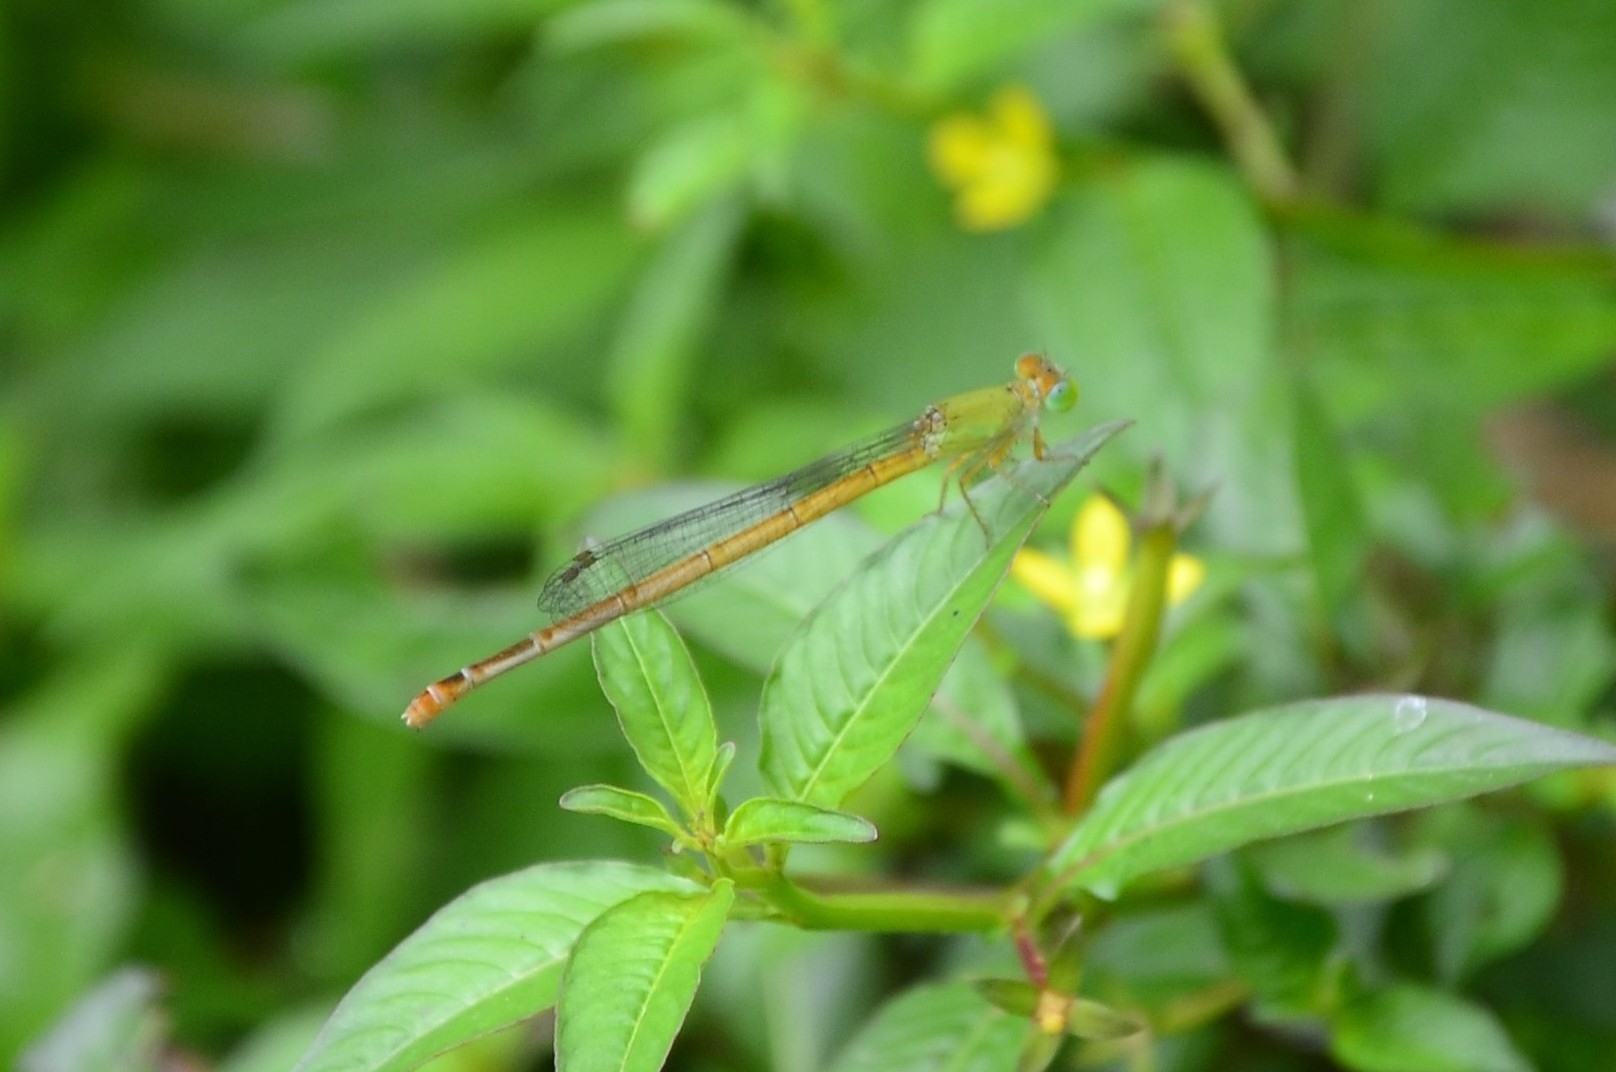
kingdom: Animalia
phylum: Arthropoda
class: Insecta
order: Odonata
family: Coenagrionidae
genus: Ceriagrion
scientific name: Ceriagrion coromandelianum
